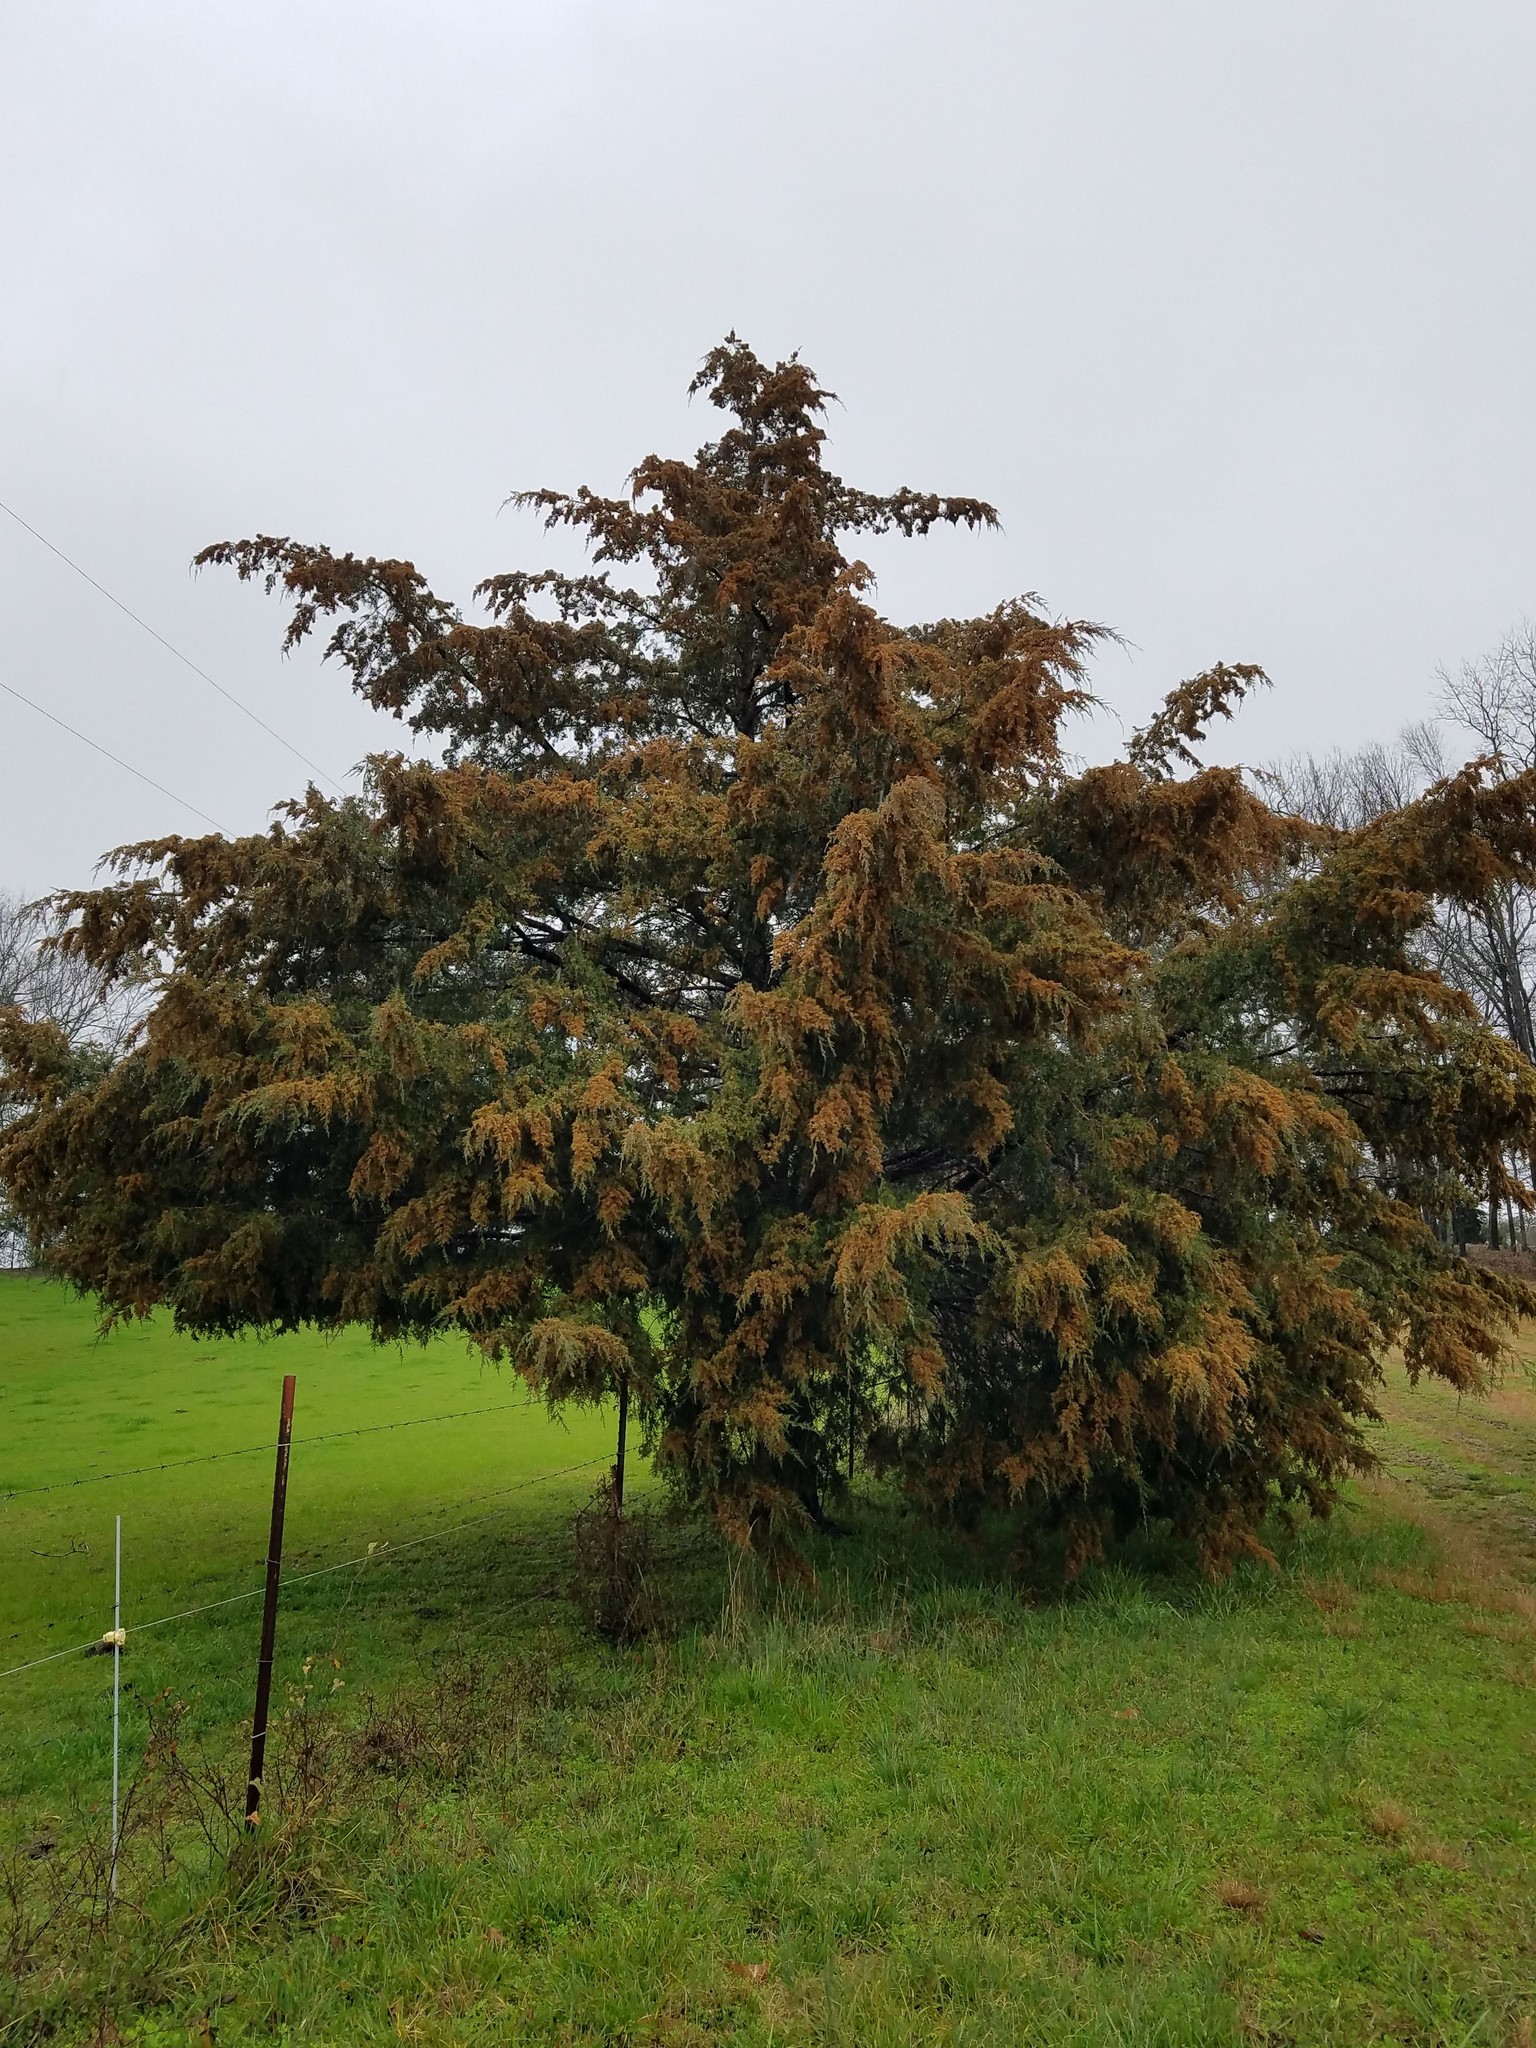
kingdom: Plantae
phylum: Tracheophyta
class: Pinopsida
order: Pinales
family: Cupressaceae
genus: Juniperus
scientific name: Juniperus virginiana
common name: Red juniper
